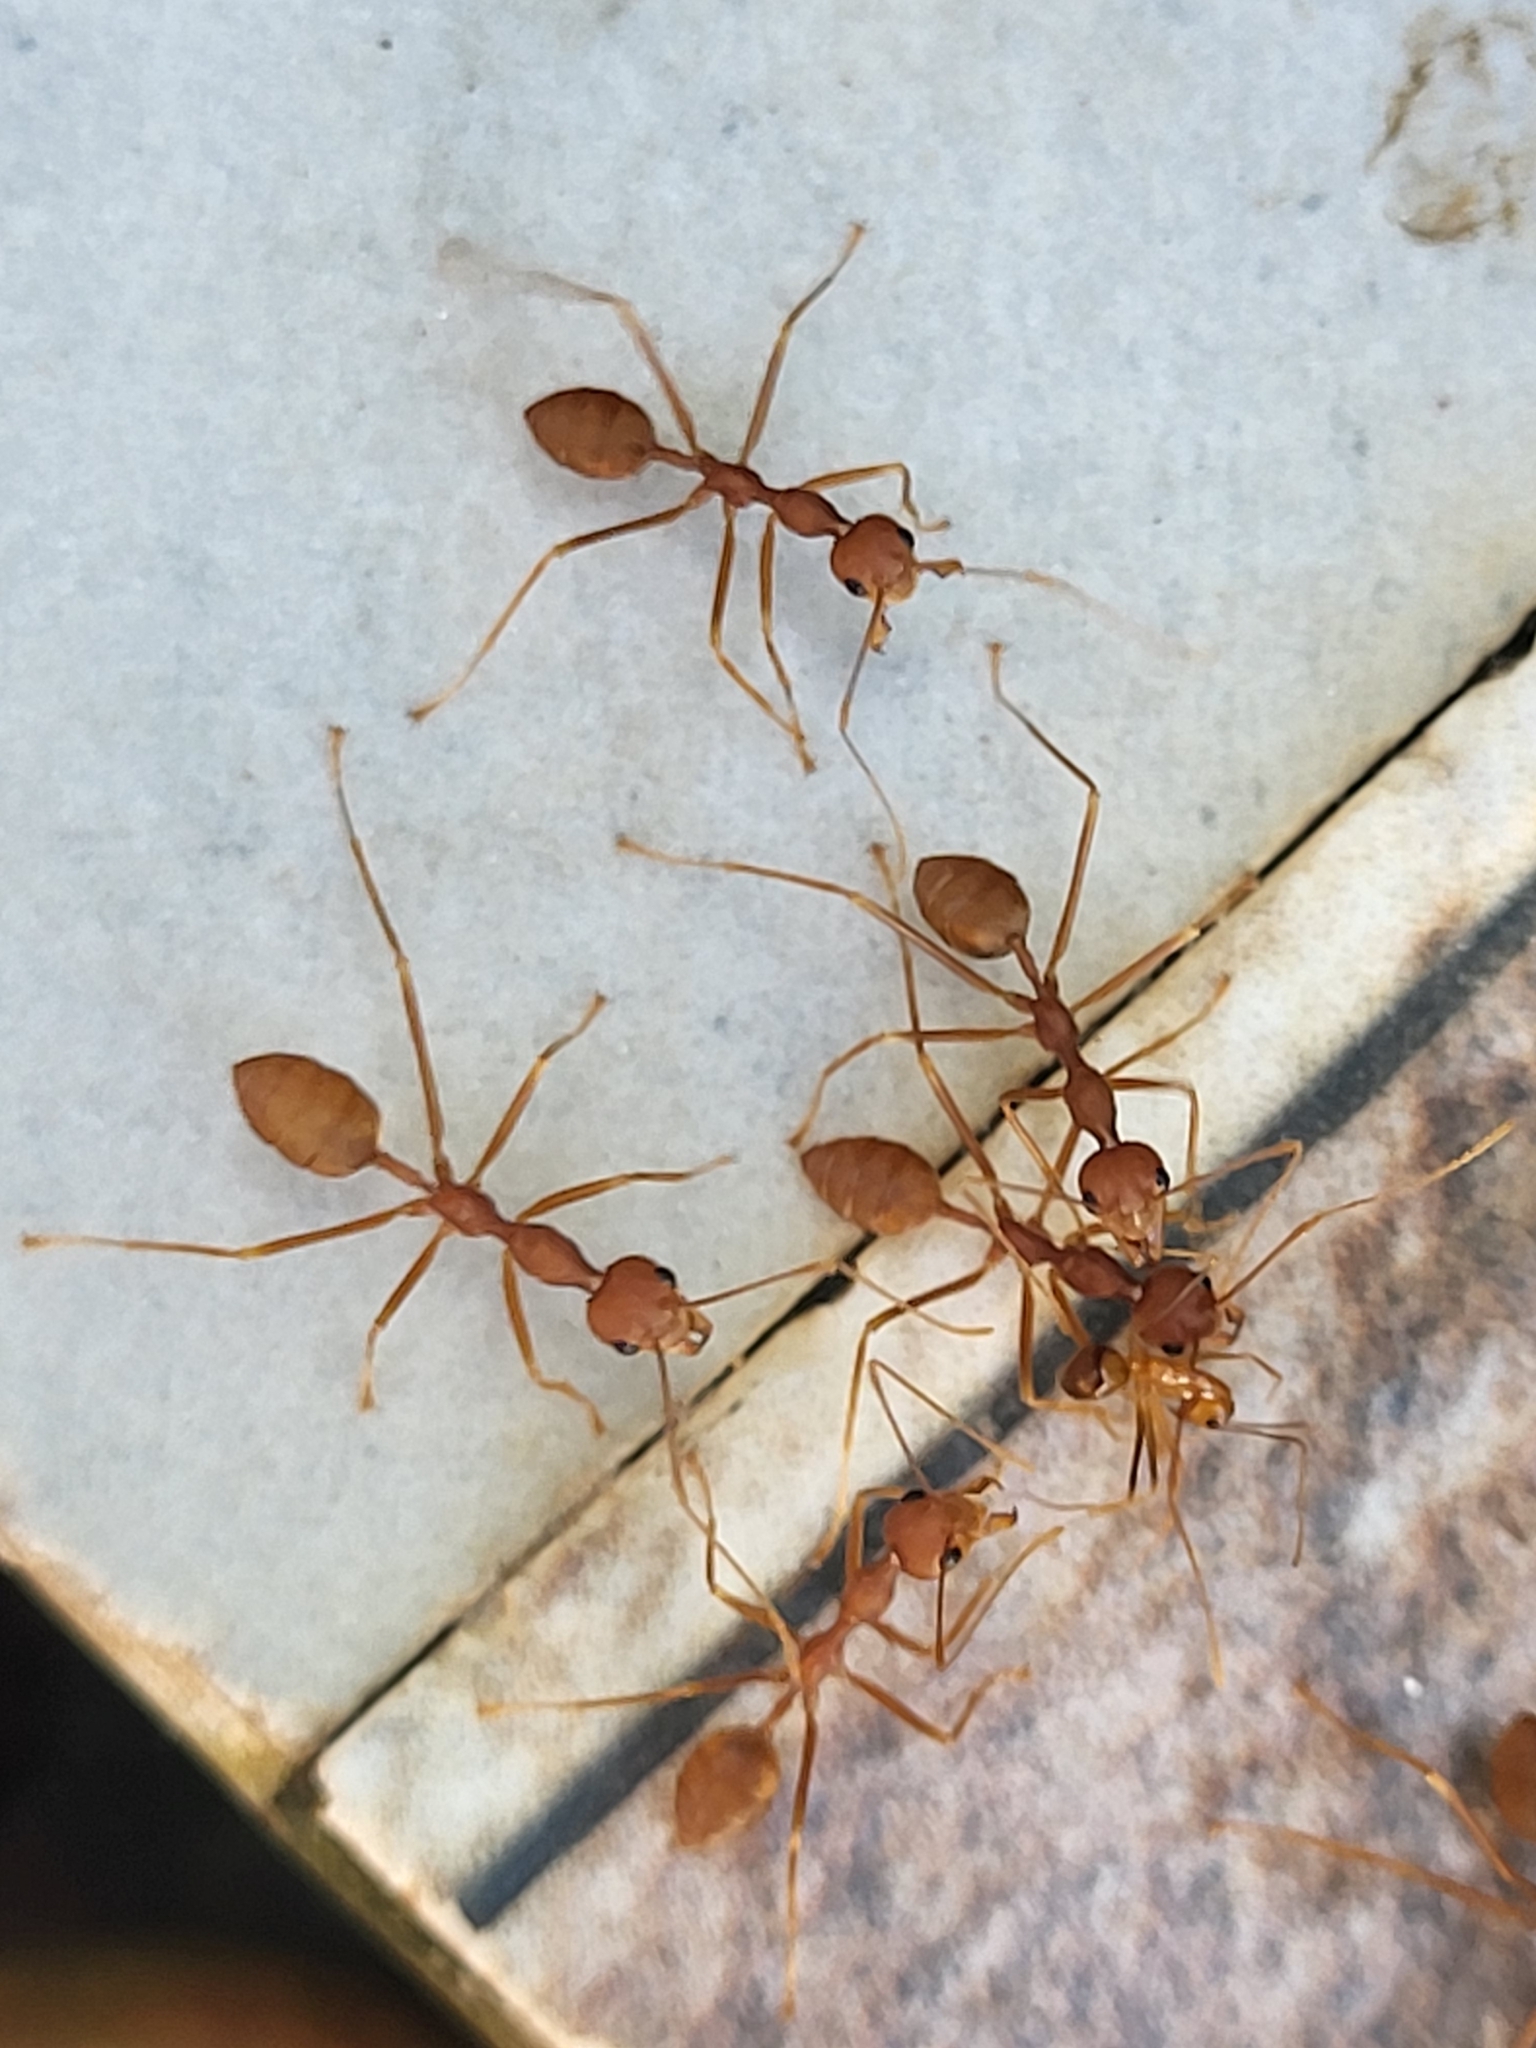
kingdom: Animalia
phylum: Arthropoda
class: Insecta
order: Hymenoptera
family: Formicidae
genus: Oecophylla
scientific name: Oecophylla smaragdina
